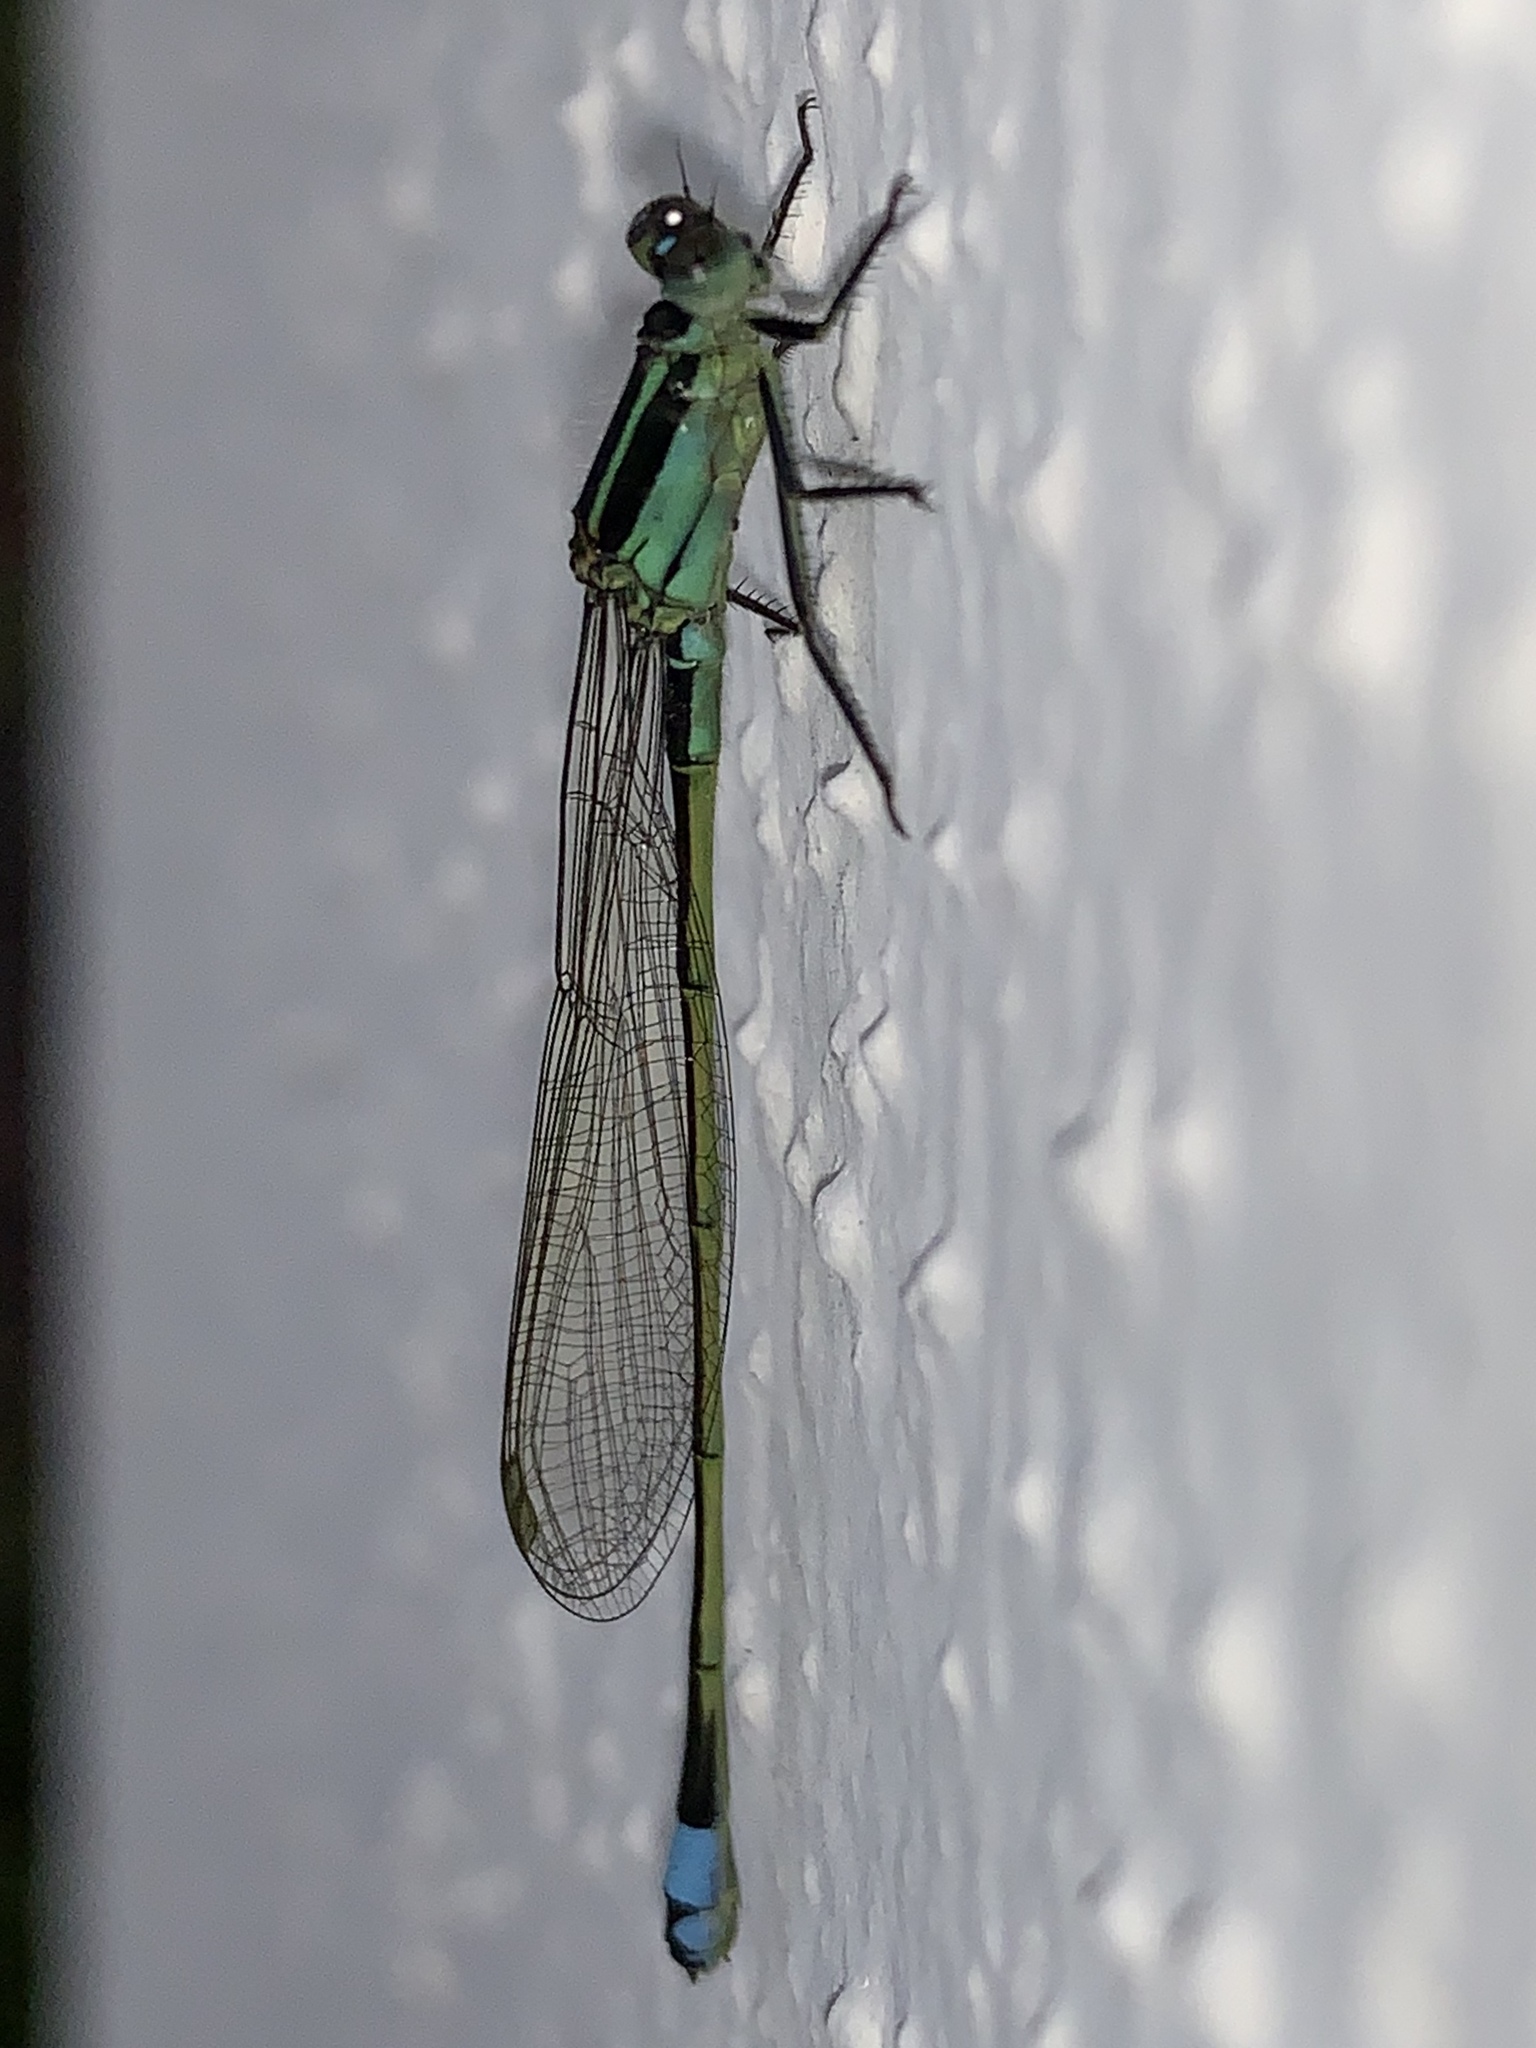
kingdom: Animalia
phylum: Arthropoda
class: Insecta
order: Odonata
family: Coenagrionidae
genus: Ischnura
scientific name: Ischnura ramburii
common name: Rambur's forktail
